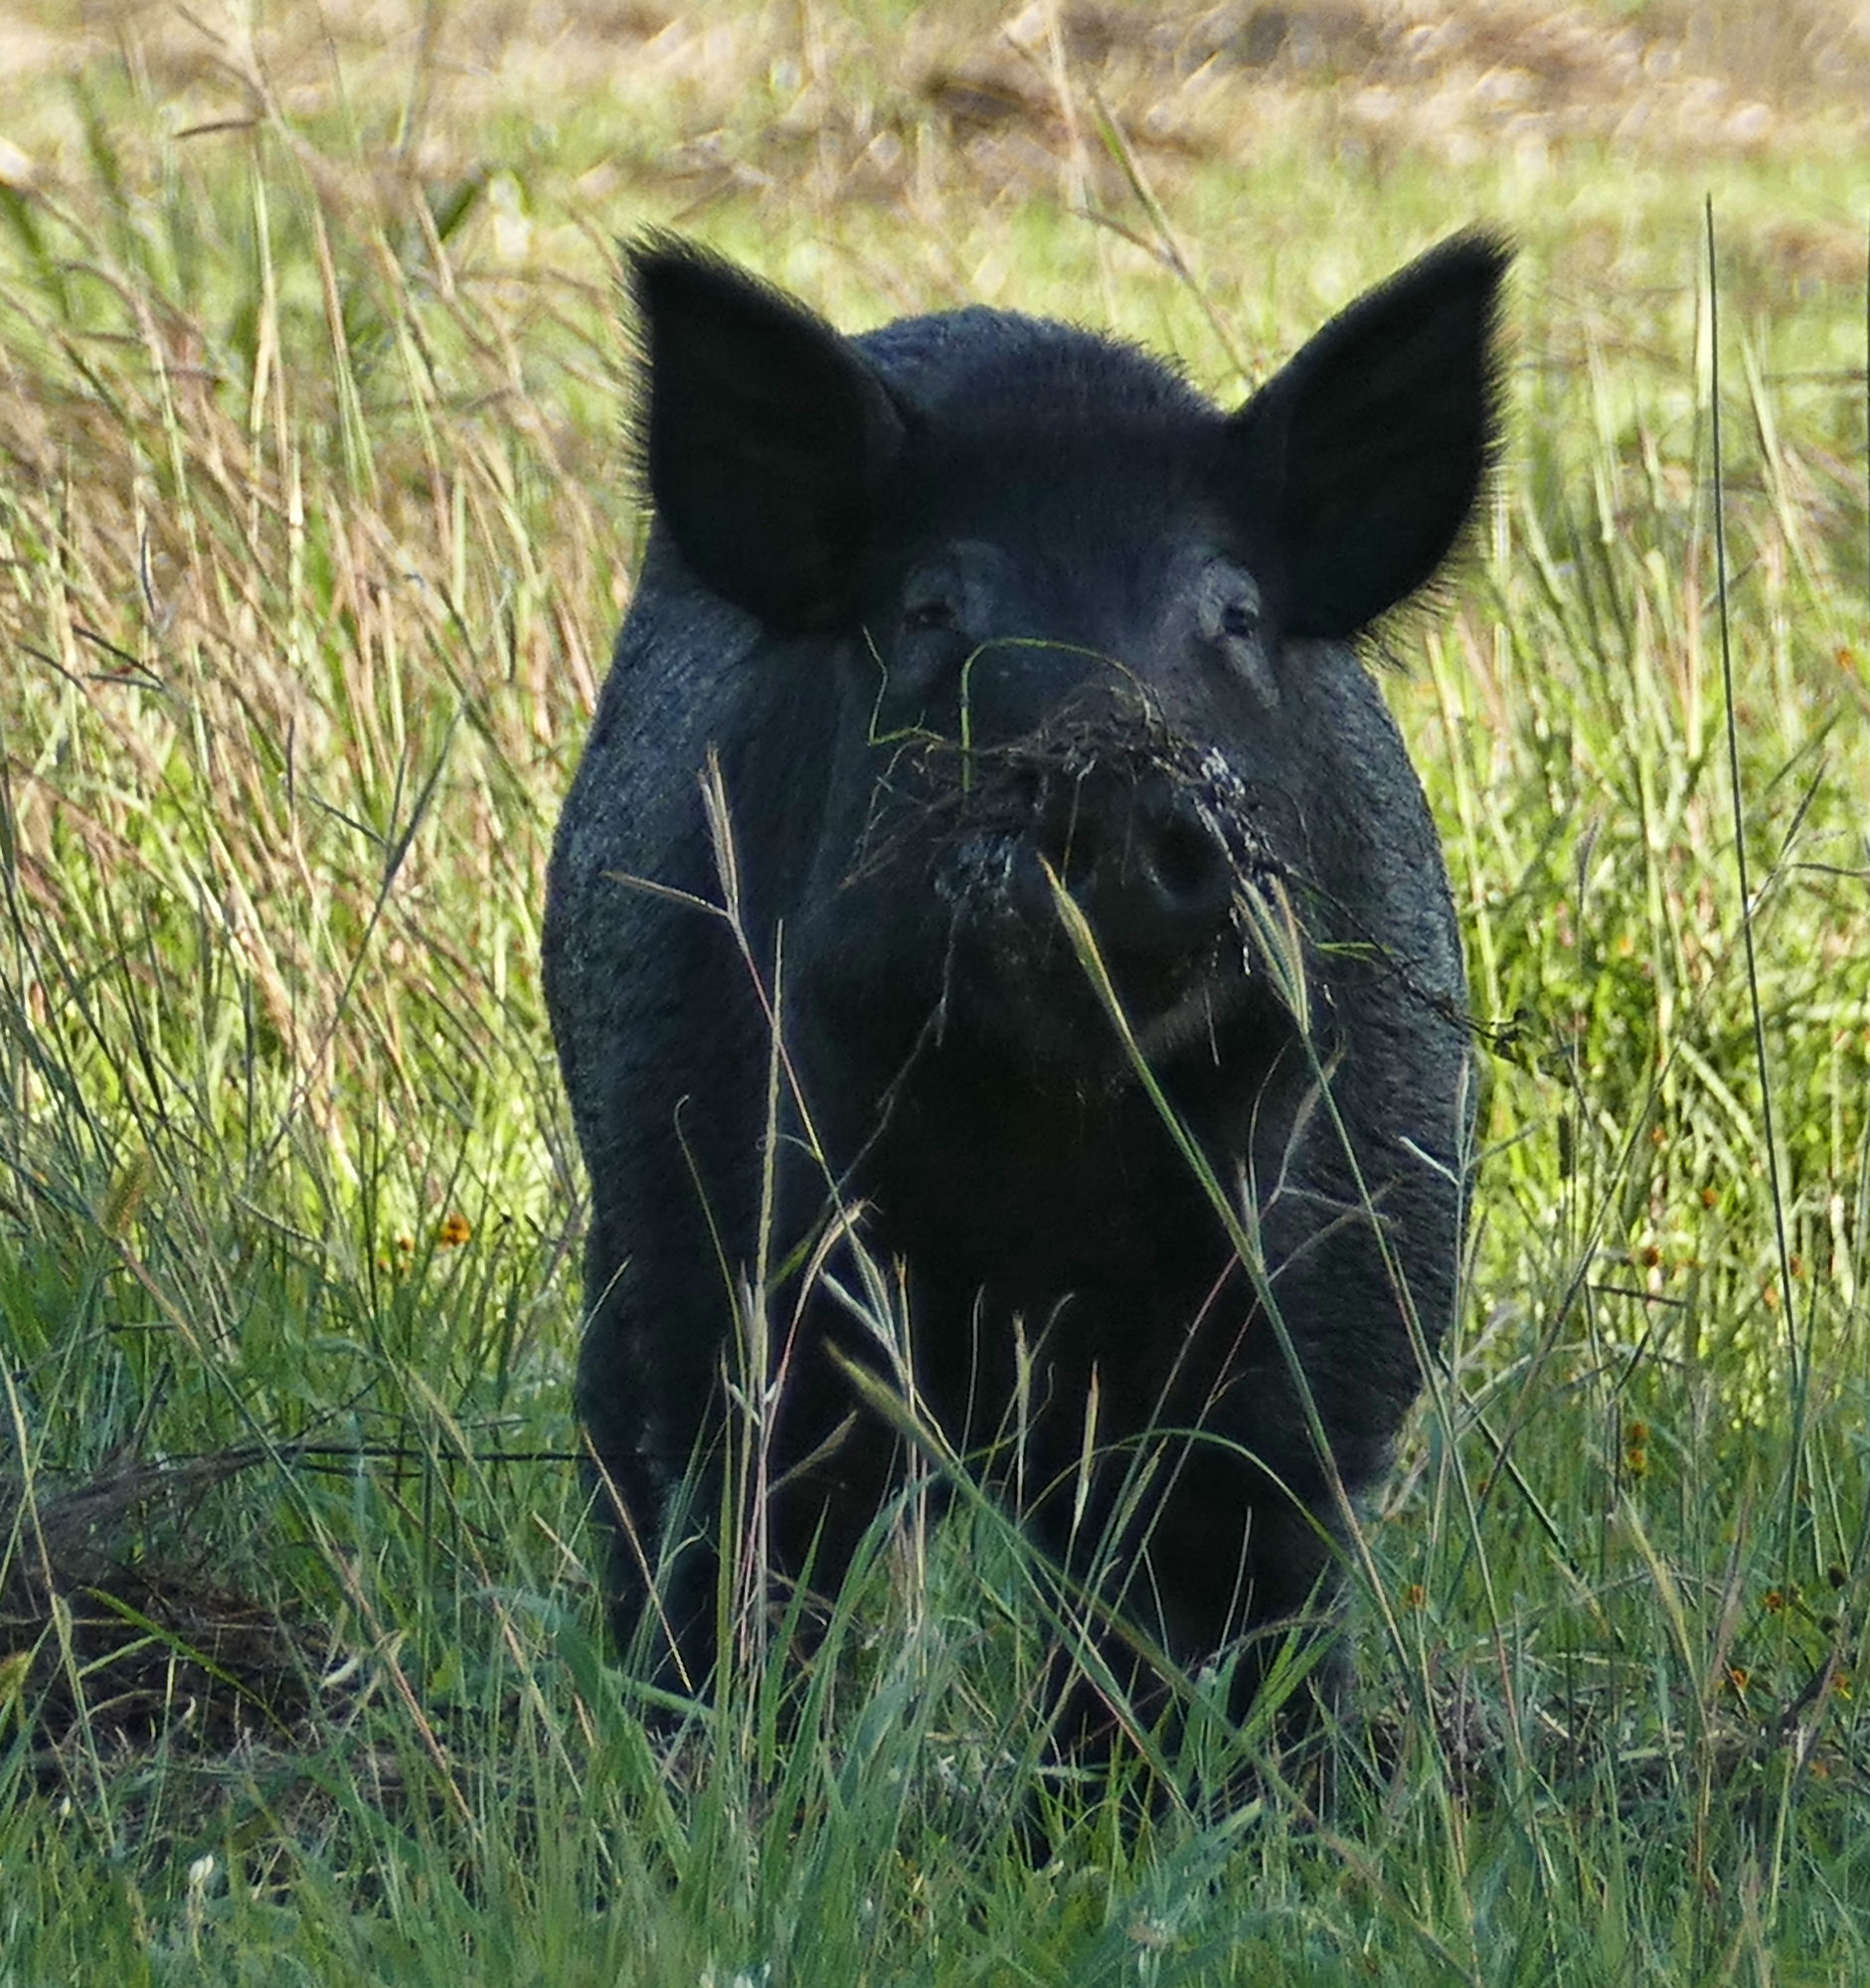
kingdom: Animalia
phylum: Chordata
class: Mammalia
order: Artiodactyla
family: Suidae
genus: Sus
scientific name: Sus scrofa
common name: Wild boar
